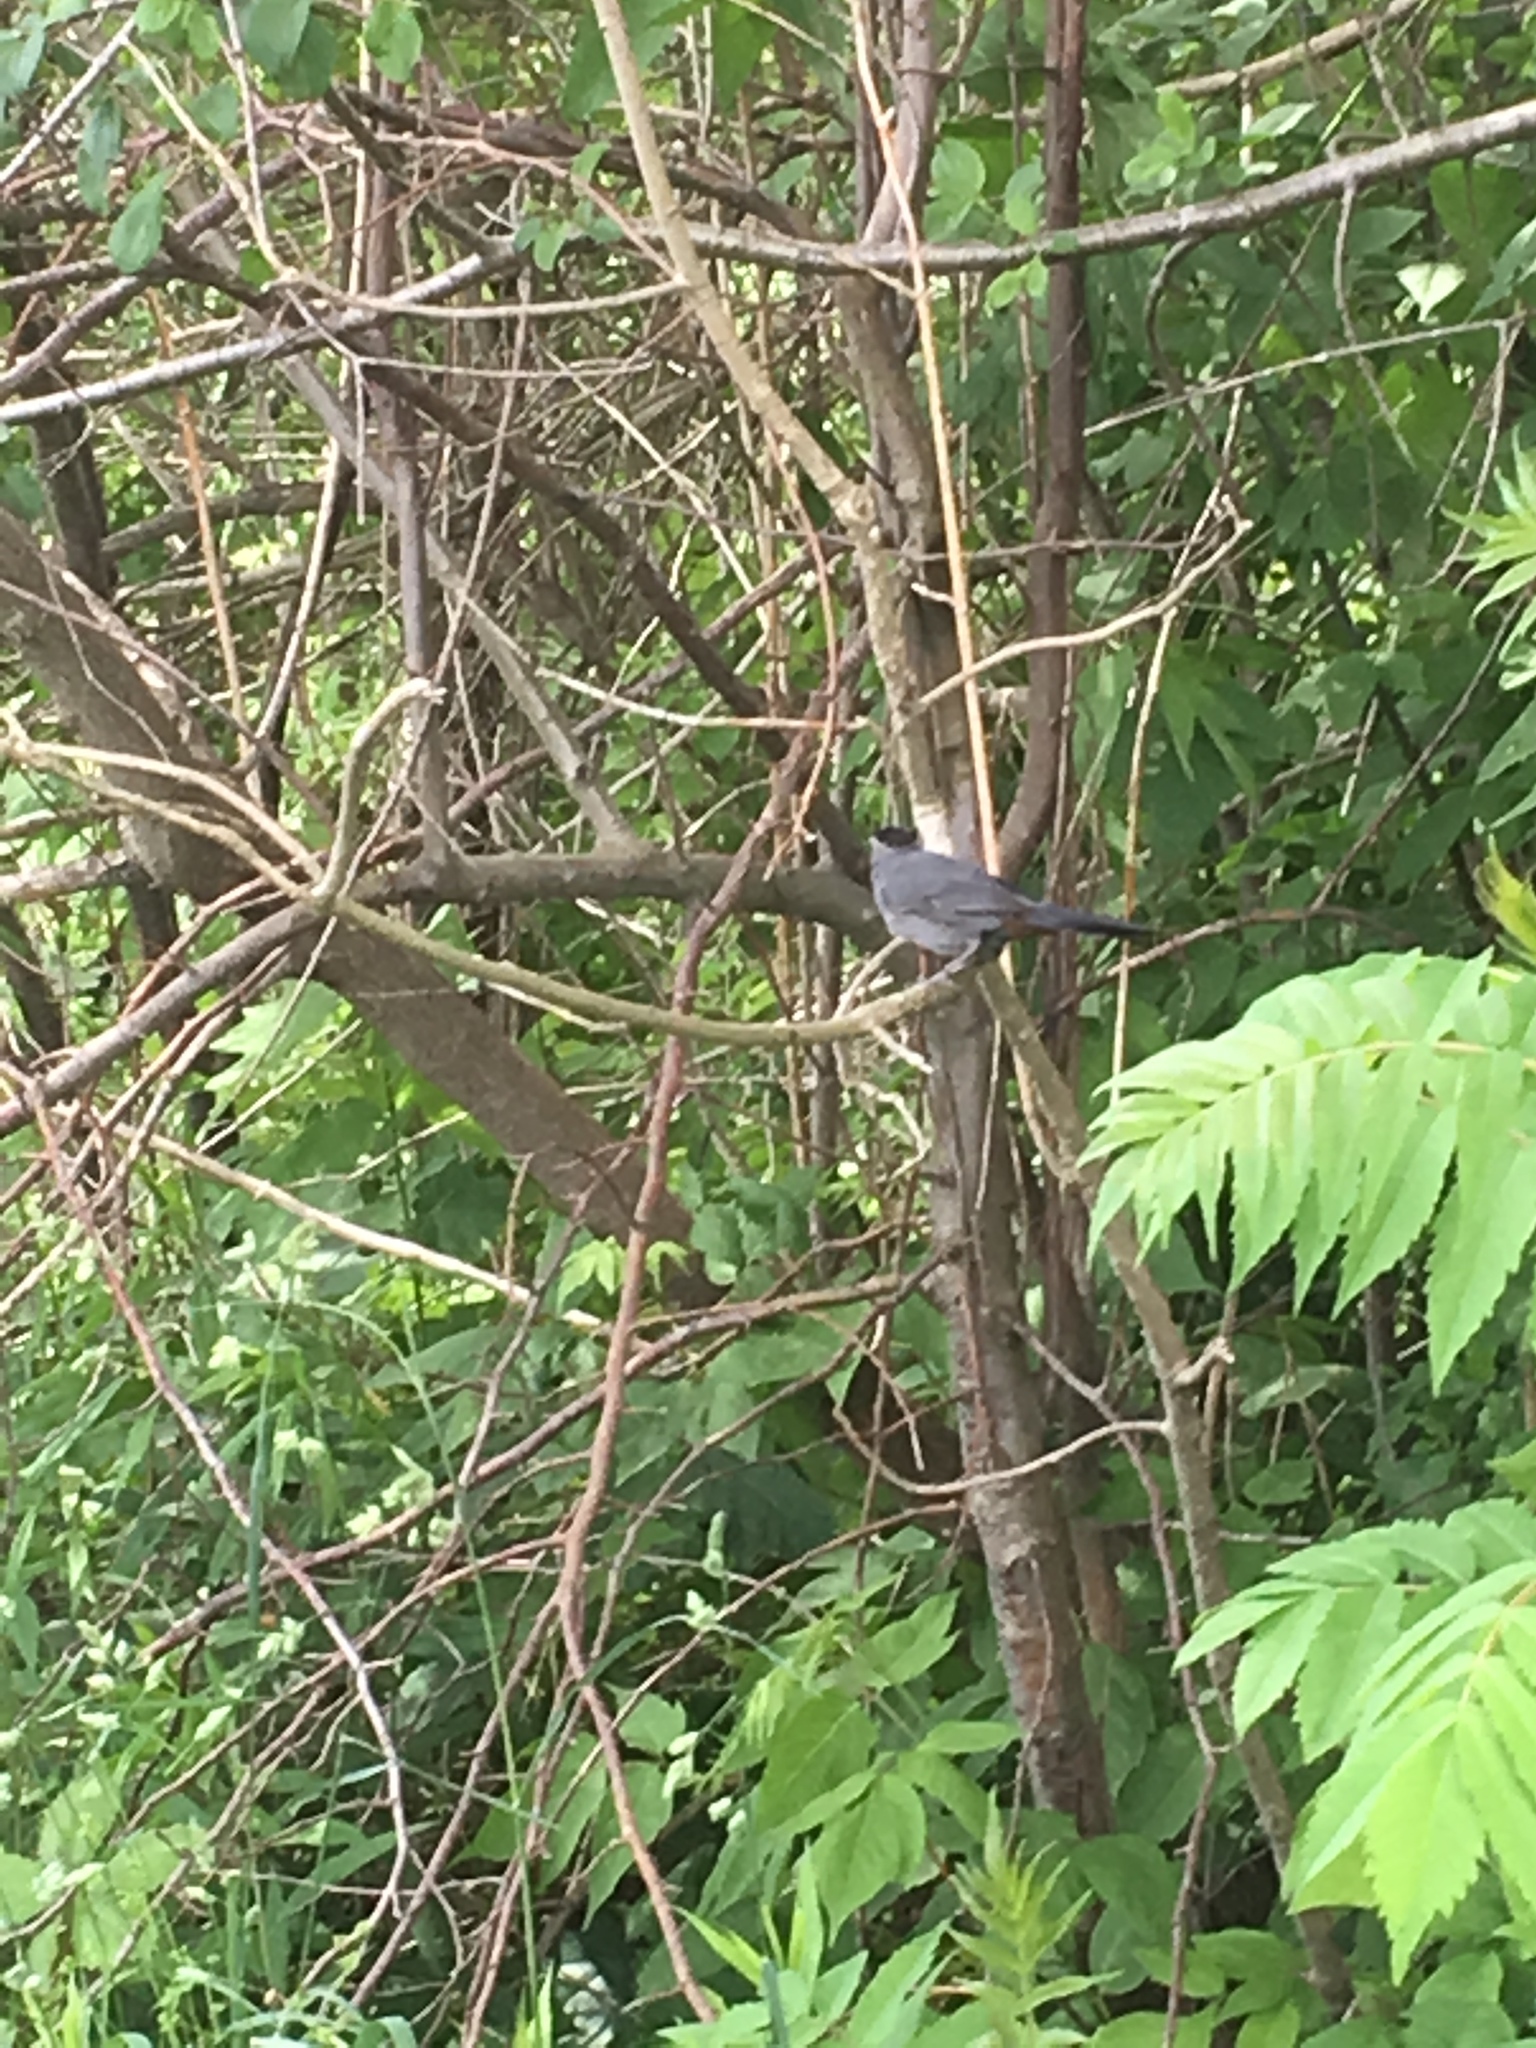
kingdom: Animalia
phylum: Chordata
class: Aves
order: Passeriformes
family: Mimidae
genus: Dumetella
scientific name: Dumetella carolinensis
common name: Gray catbird
